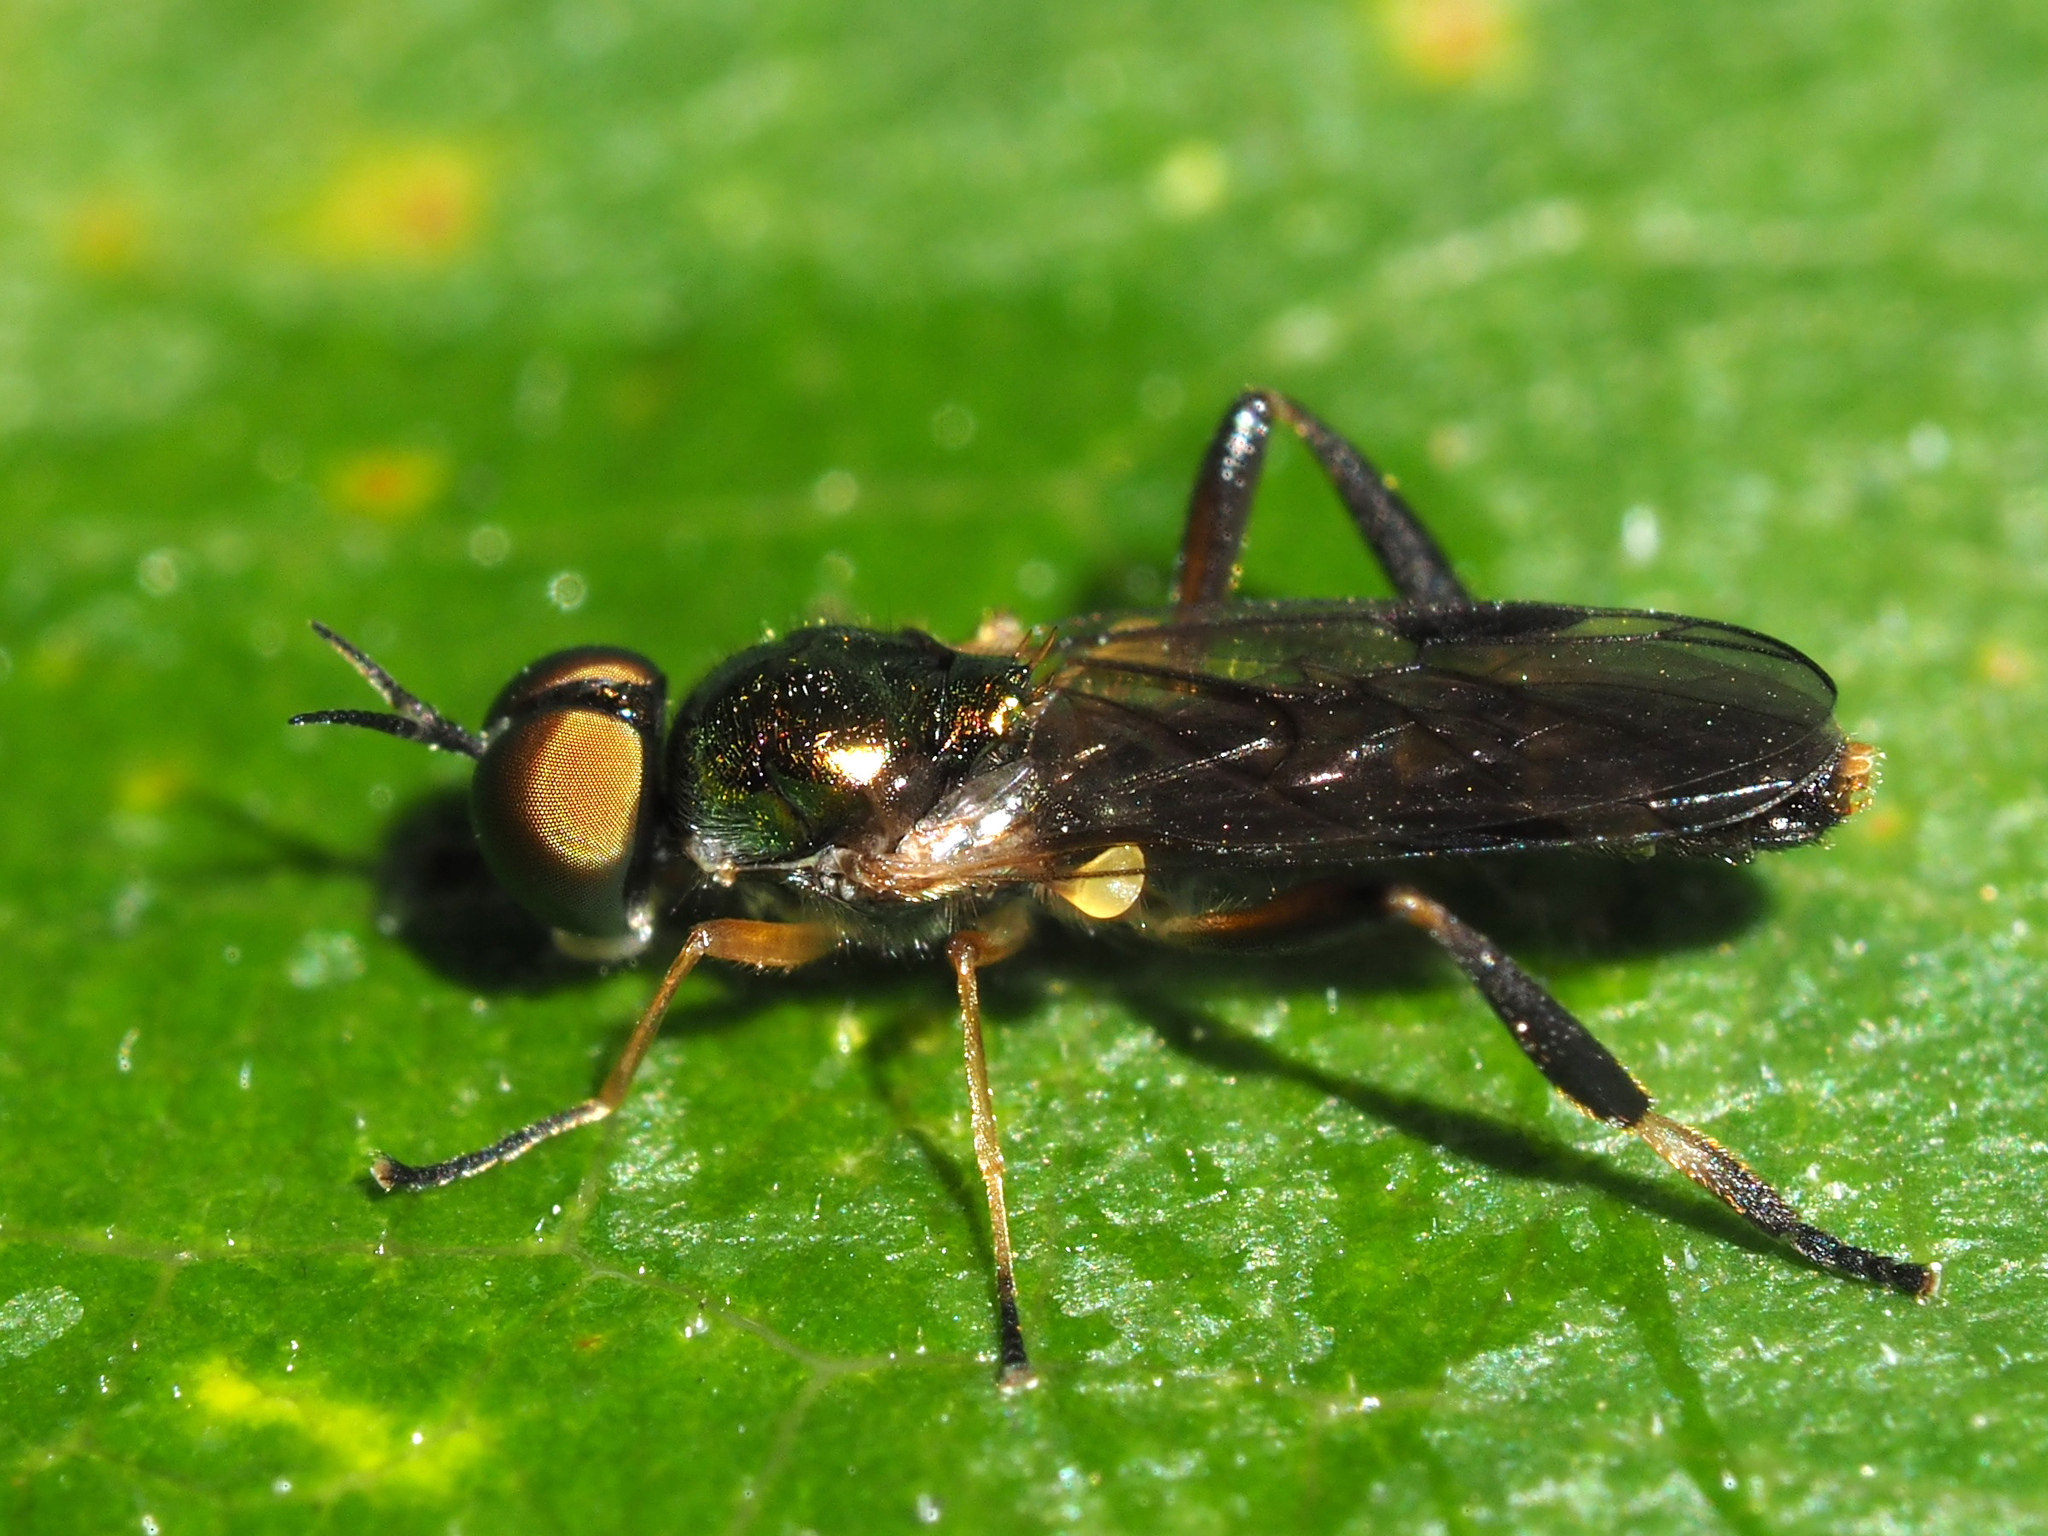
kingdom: Animalia
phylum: Arthropoda
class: Insecta
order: Diptera
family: Stratiomyidae
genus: Actina
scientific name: Actina chalybea
